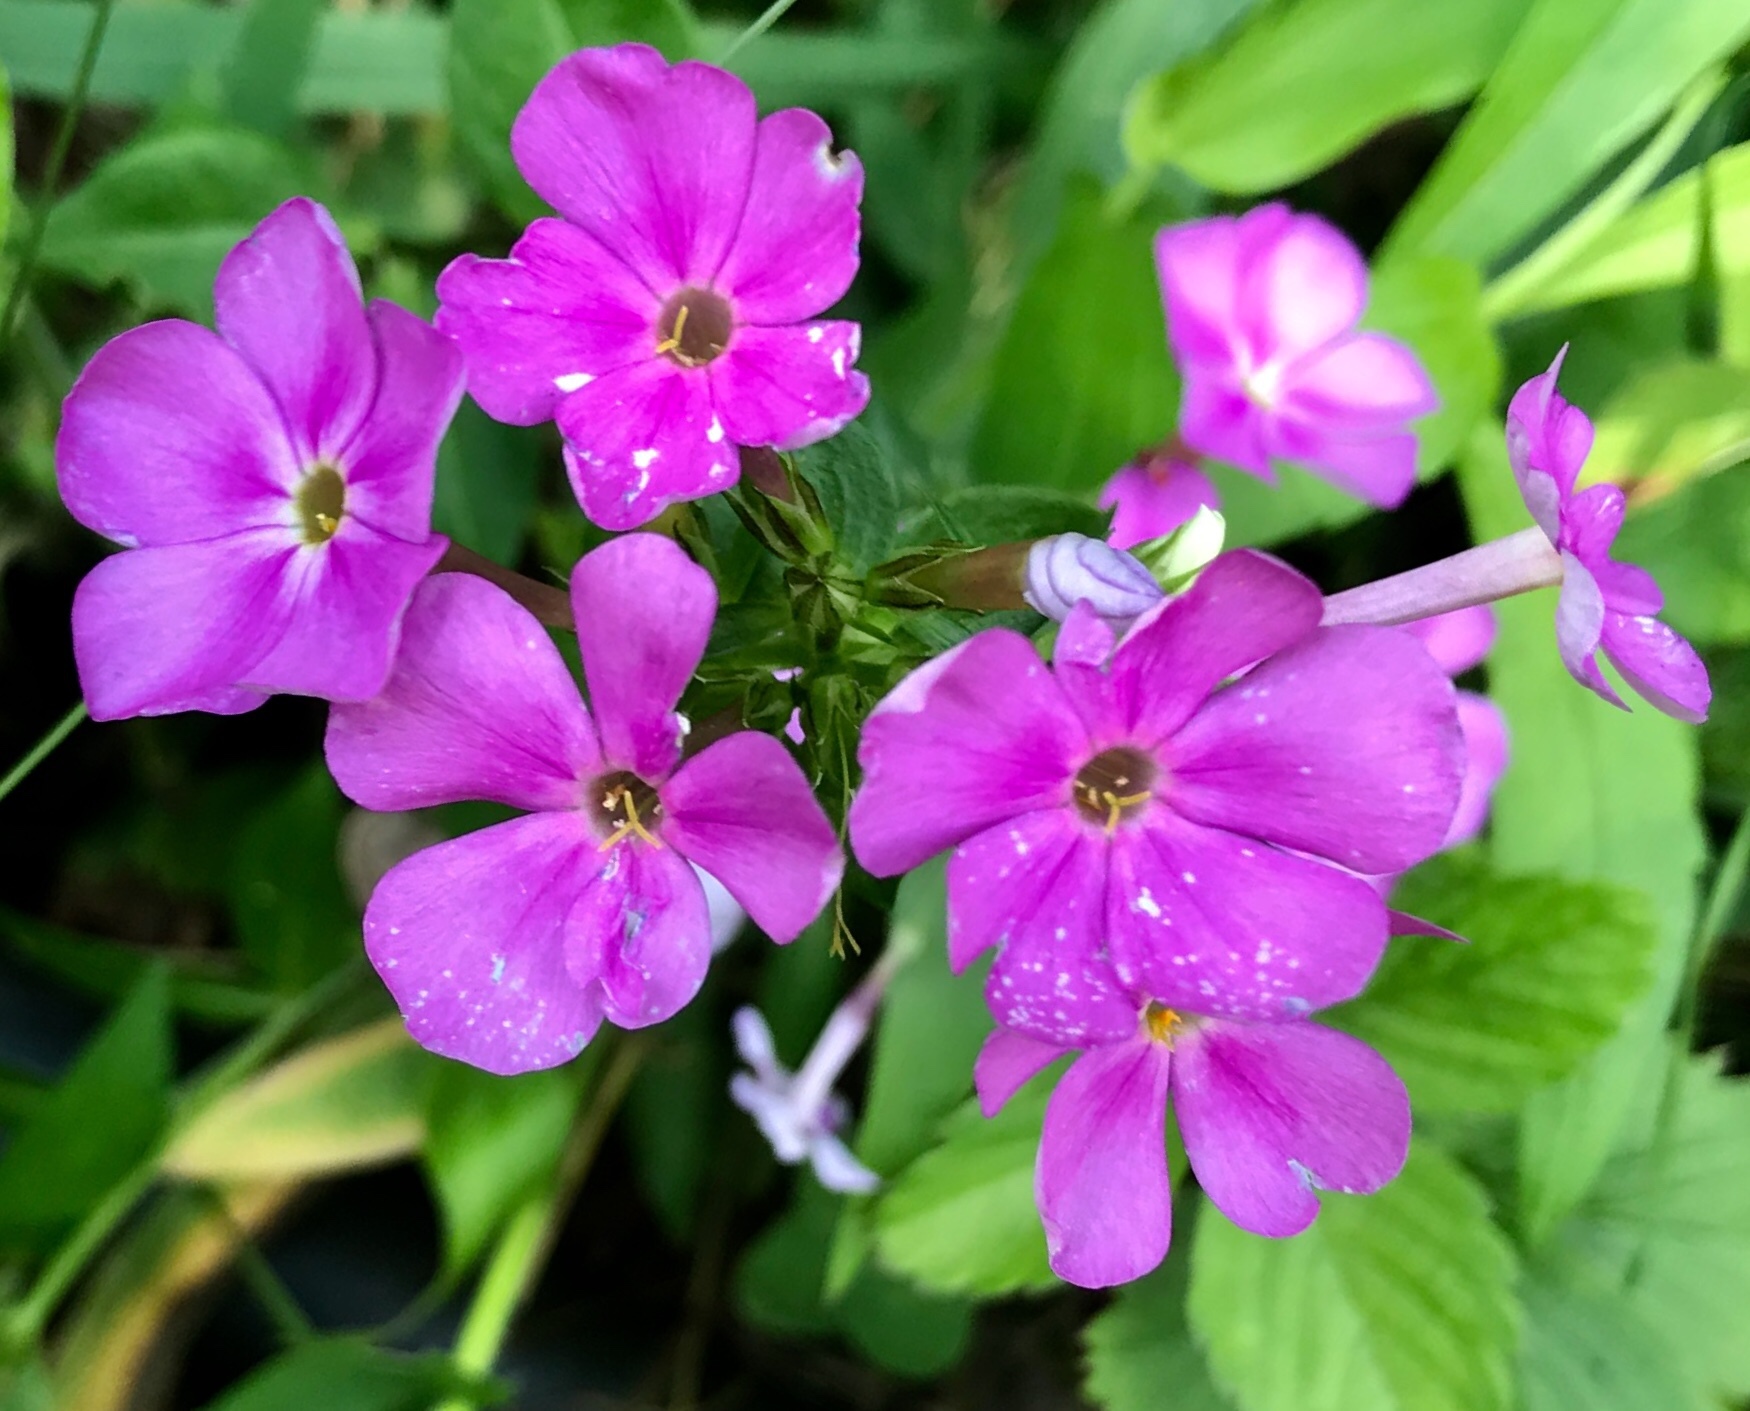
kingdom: Plantae
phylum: Tracheophyta
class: Magnoliopsida
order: Ericales
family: Polemoniaceae
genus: Phlox
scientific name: Phlox ovata
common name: Mountain phlox
